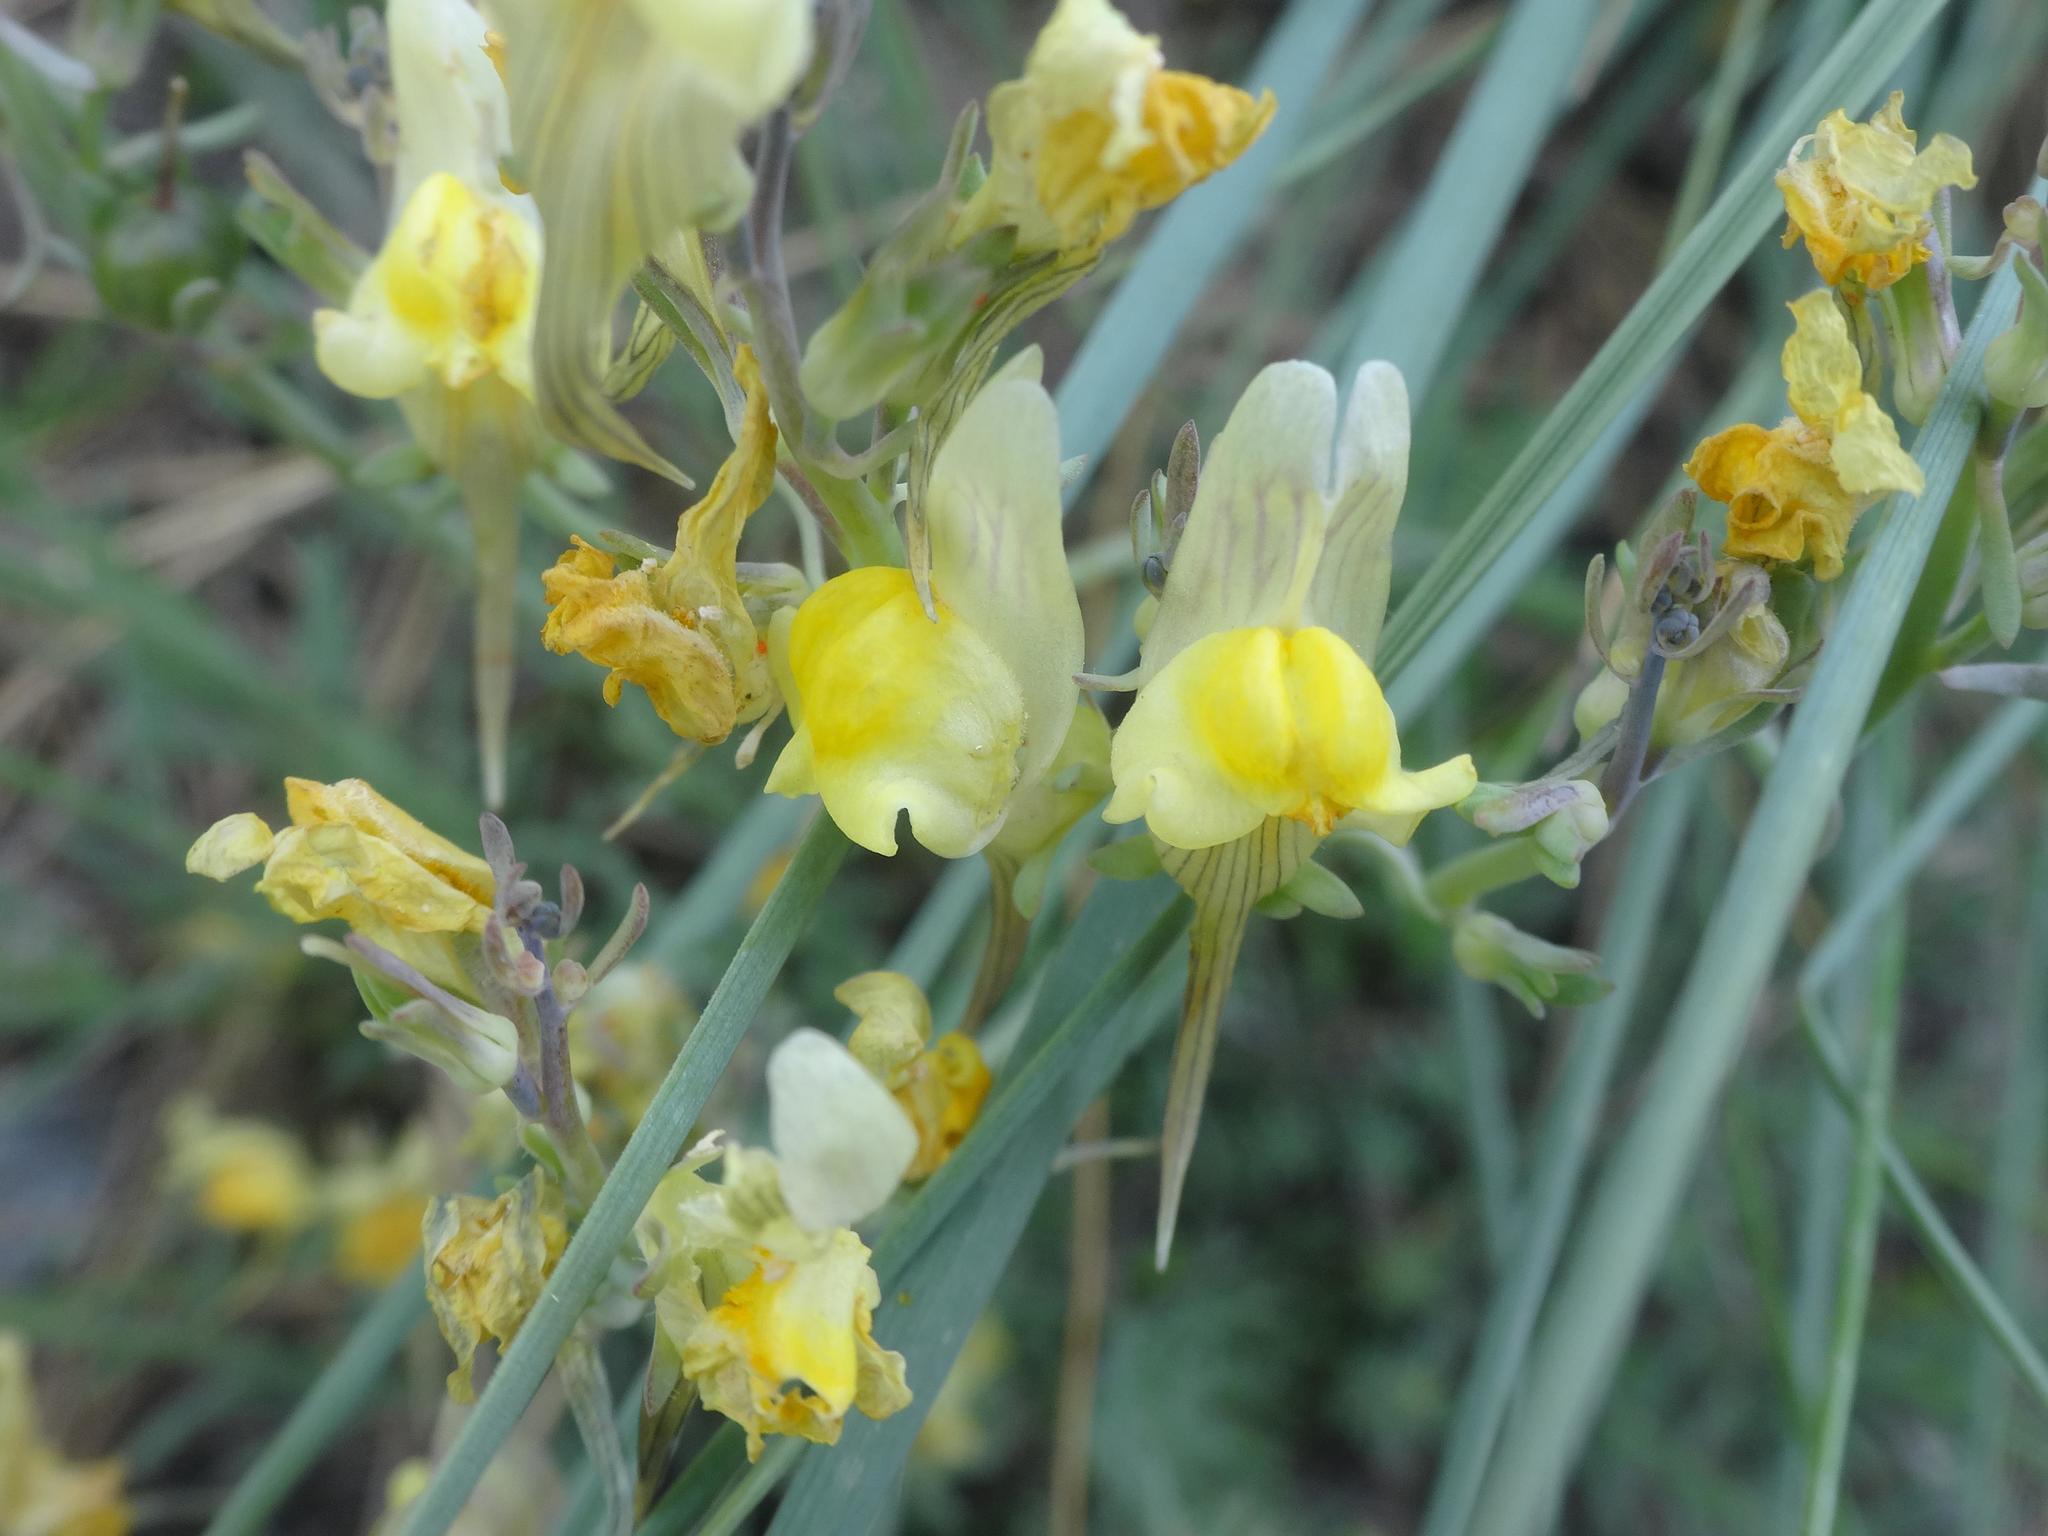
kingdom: Plantae
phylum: Tracheophyta
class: Magnoliopsida
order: Lamiales
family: Plantaginaceae
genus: Linaria
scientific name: Linaria vulgaris
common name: Butter and eggs
